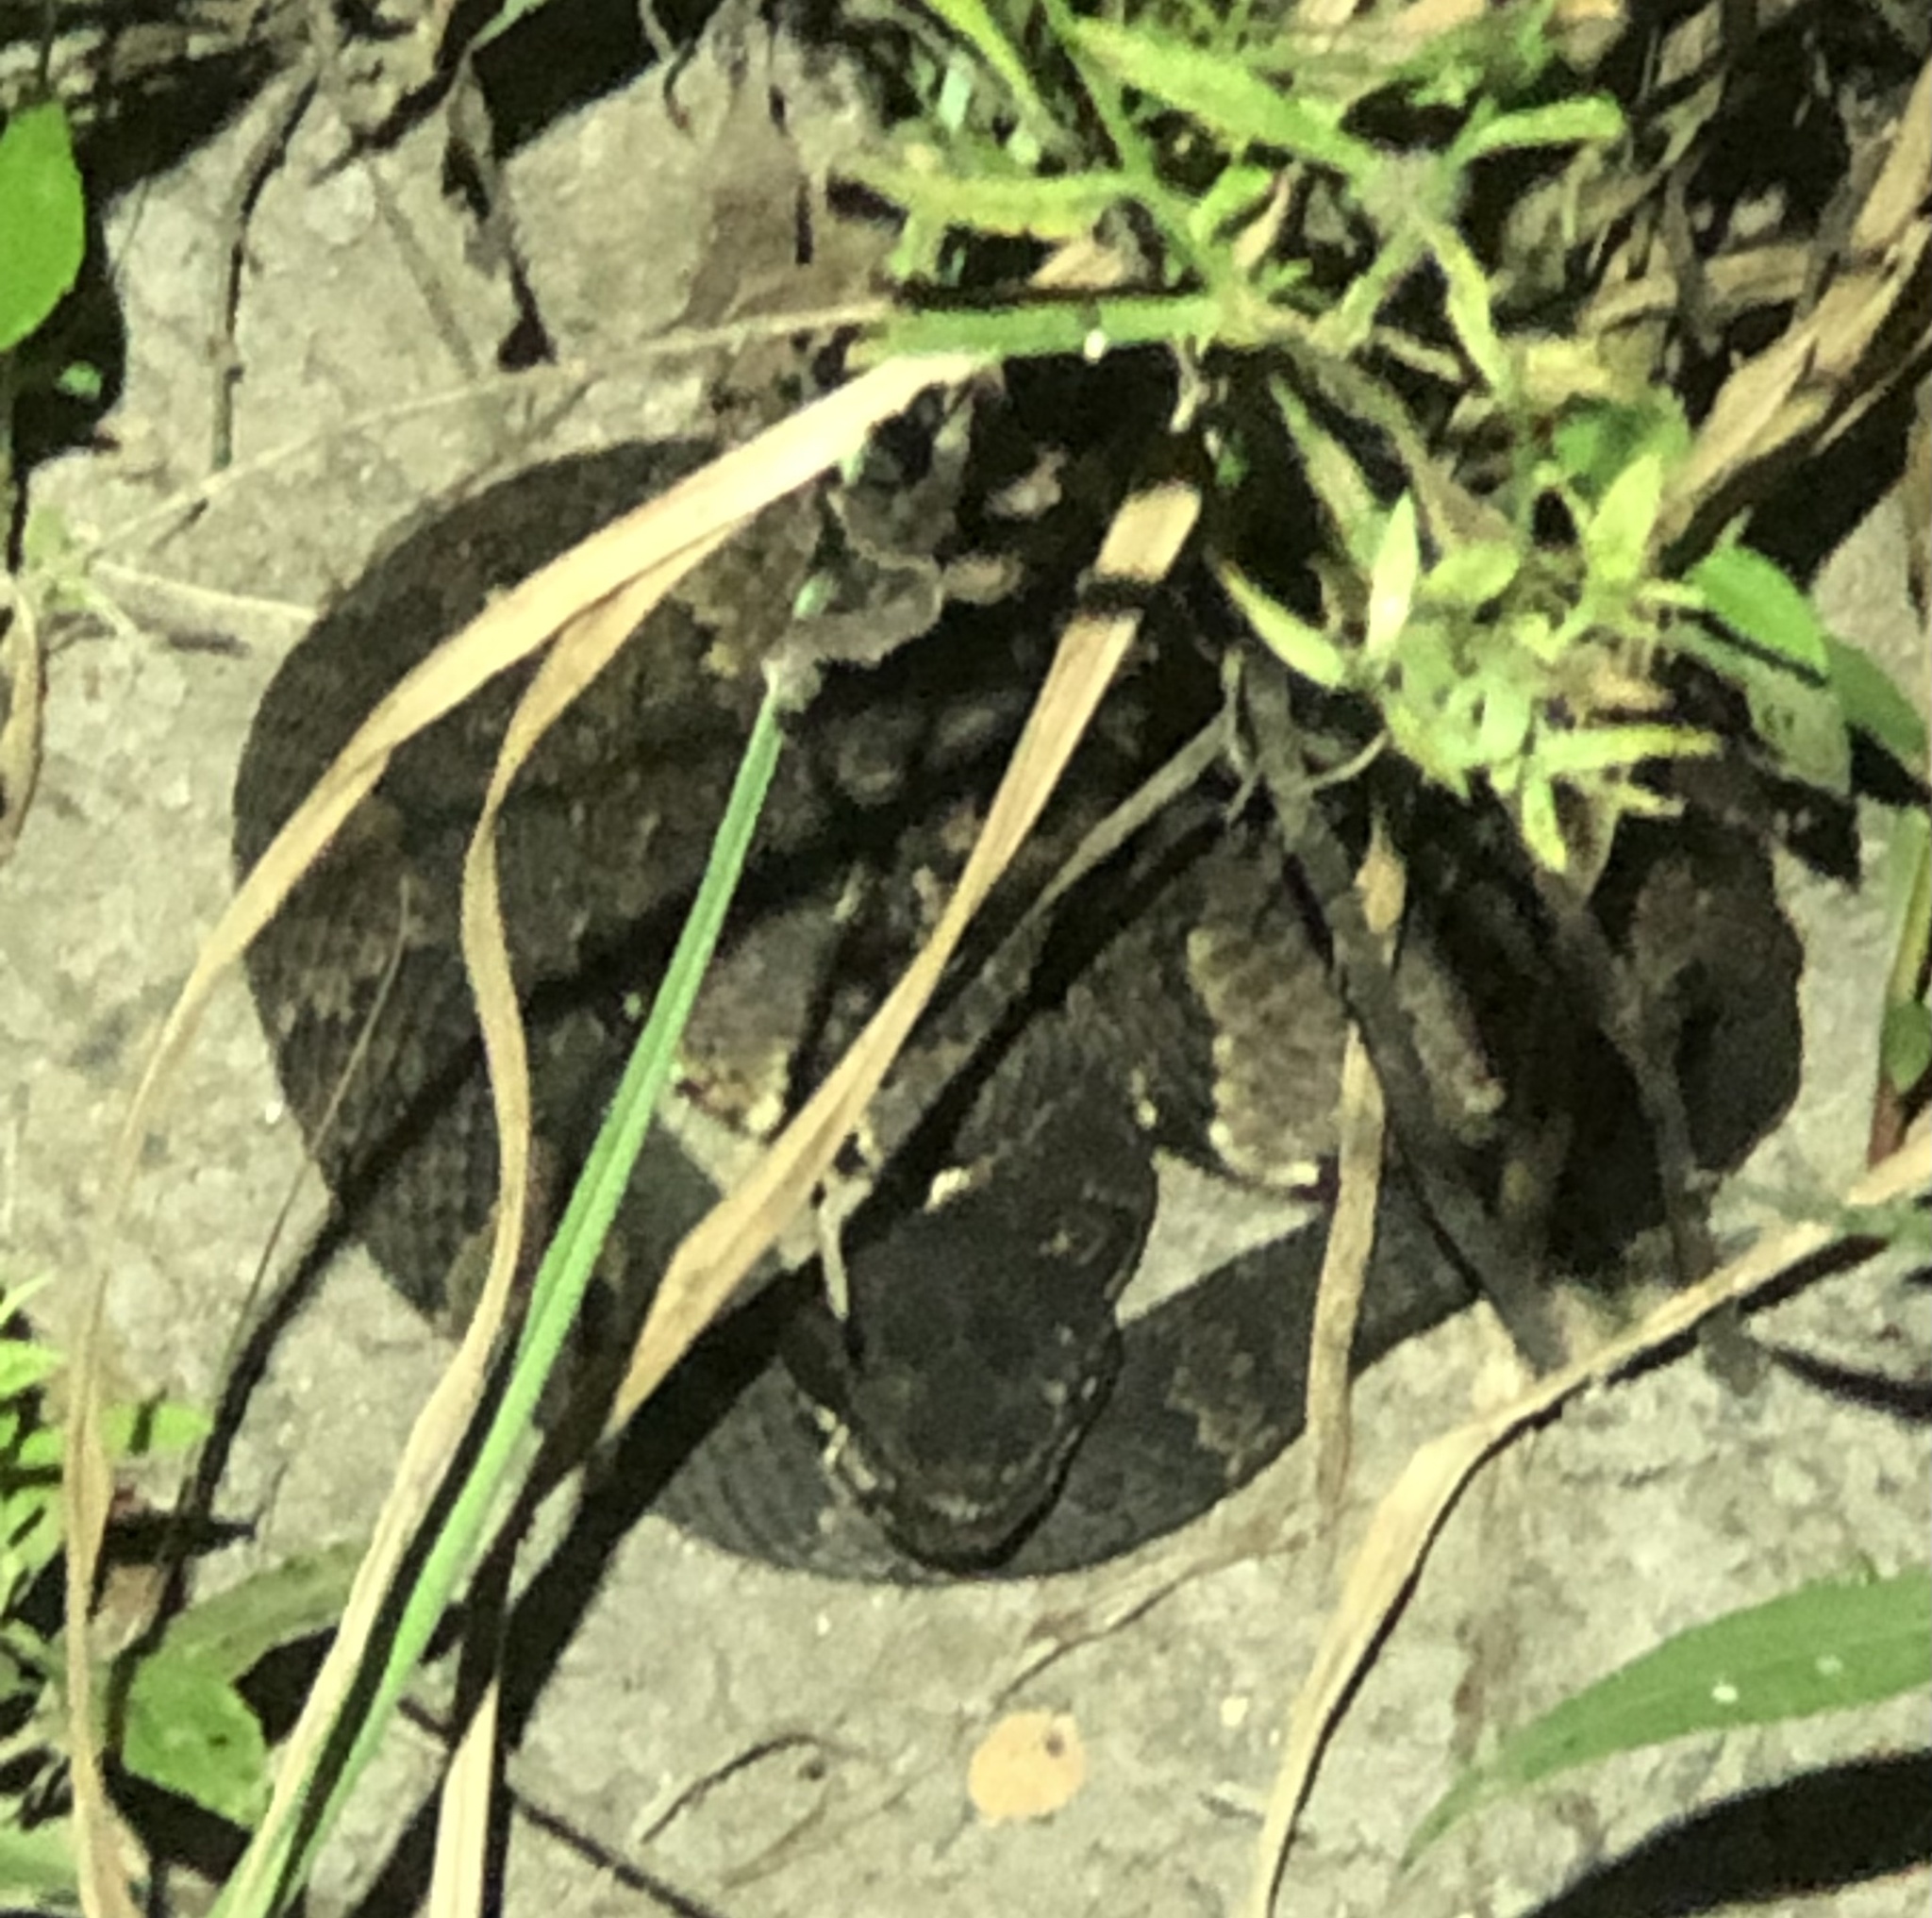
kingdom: Animalia
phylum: Chordata
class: Squamata
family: Viperidae
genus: Agkistrodon
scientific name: Agkistrodon piscivorus
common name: Cottonmouth
